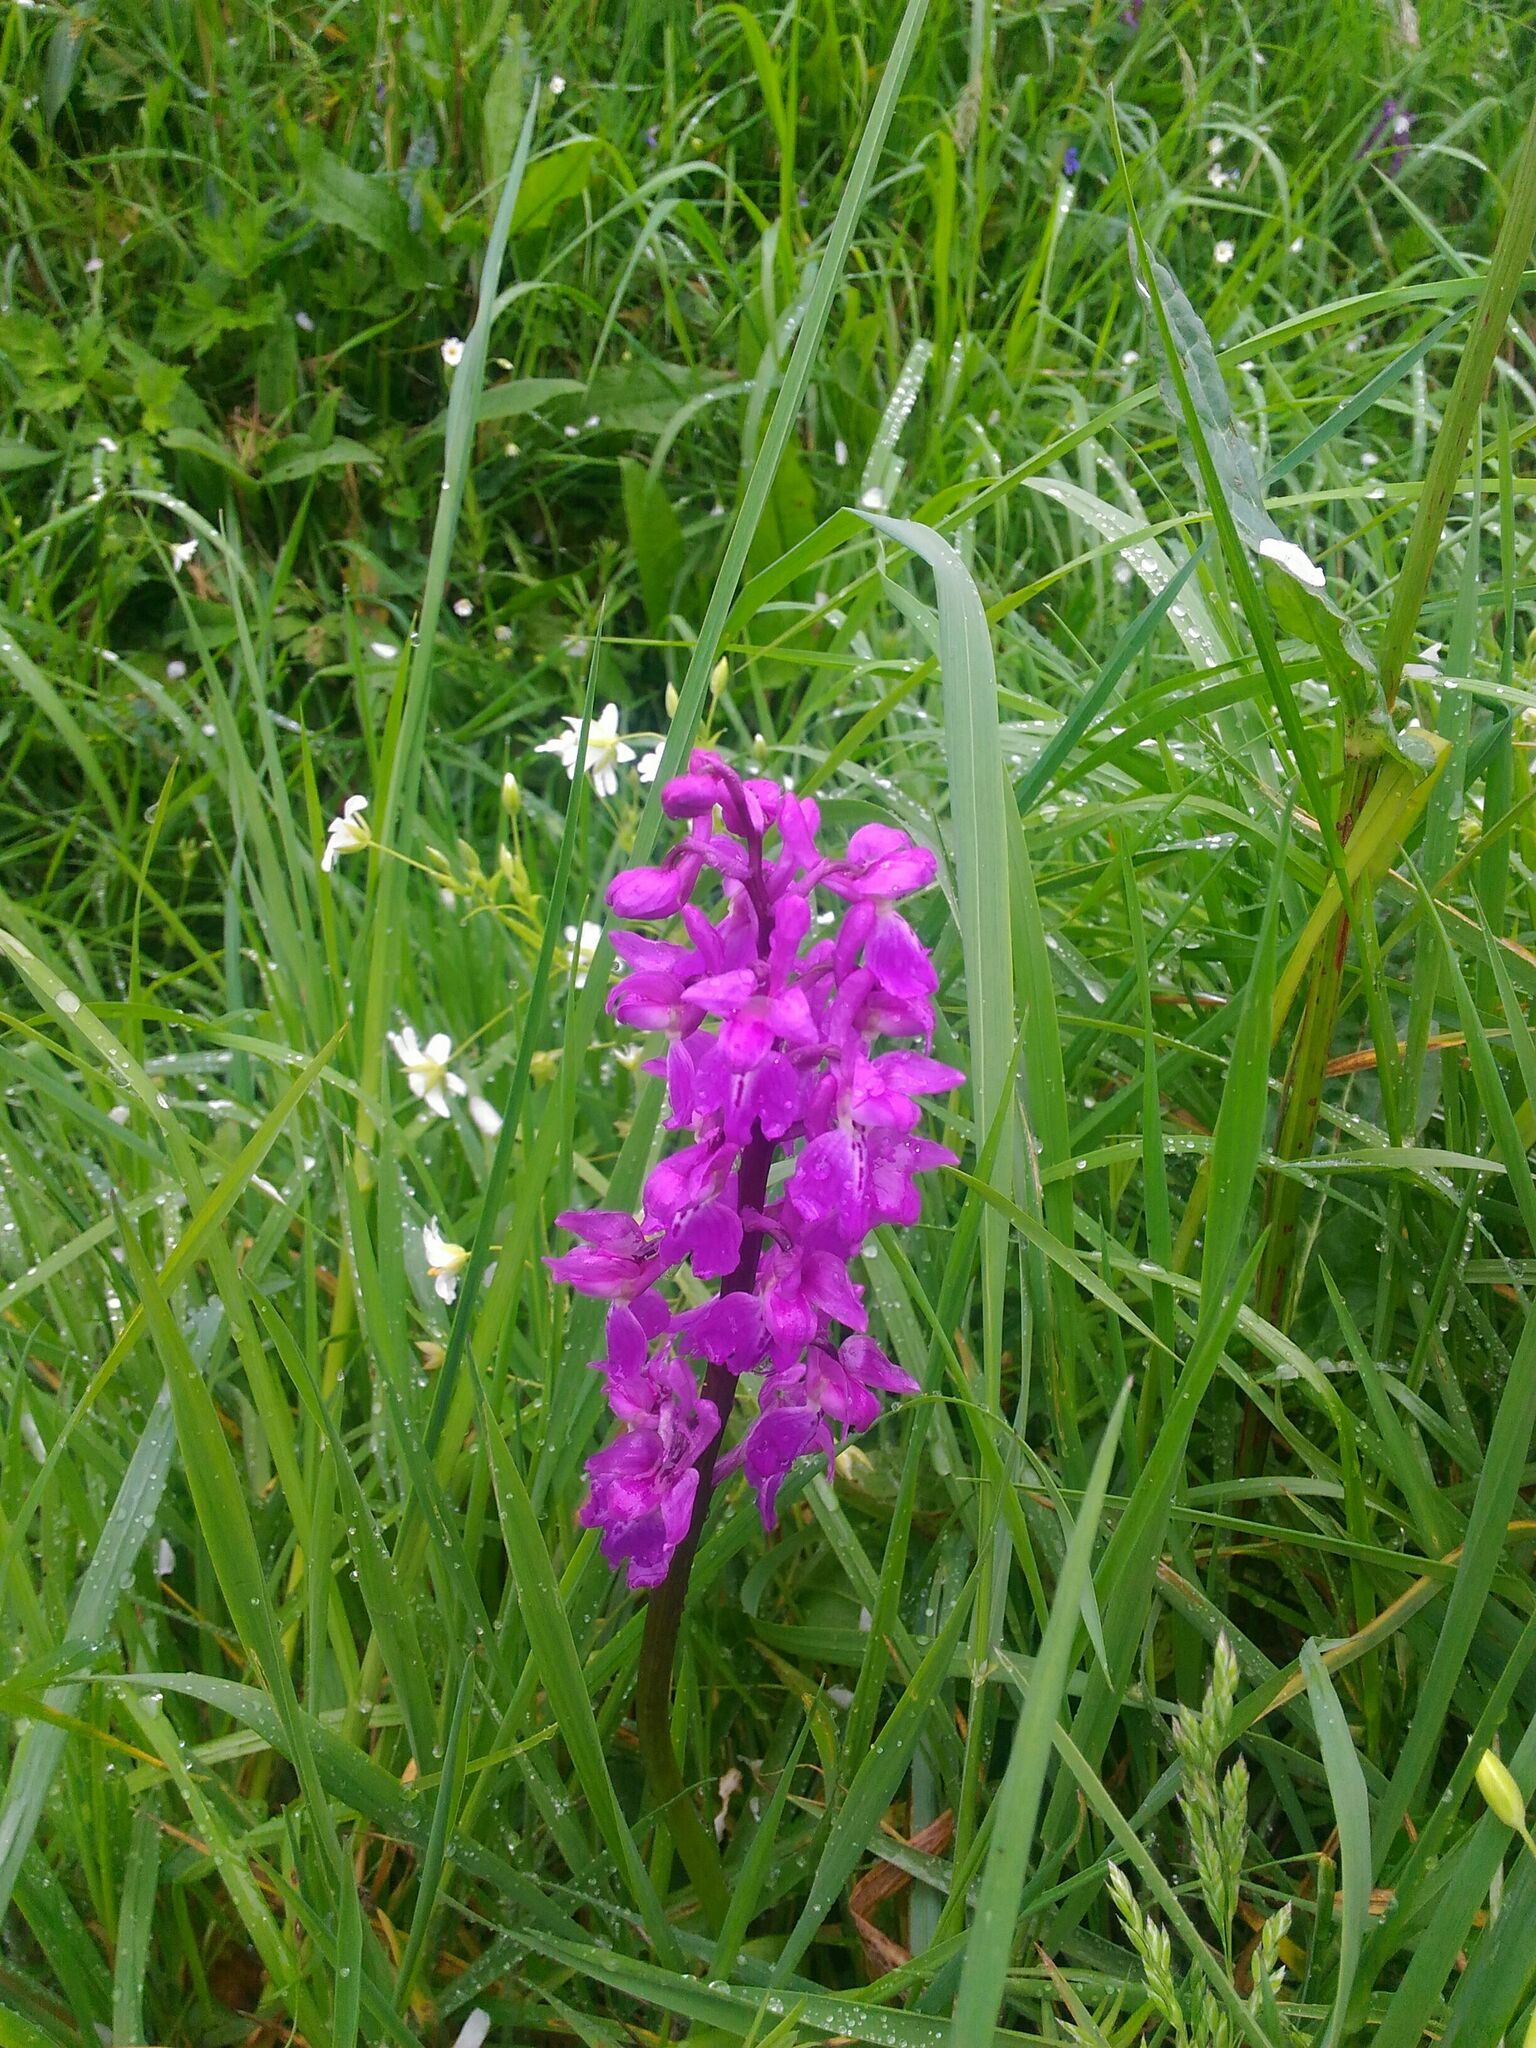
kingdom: Plantae
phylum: Tracheophyta
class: Liliopsida
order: Asparagales
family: Orchidaceae
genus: Orchis
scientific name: Orchis mascula
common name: Early-purple orchid
